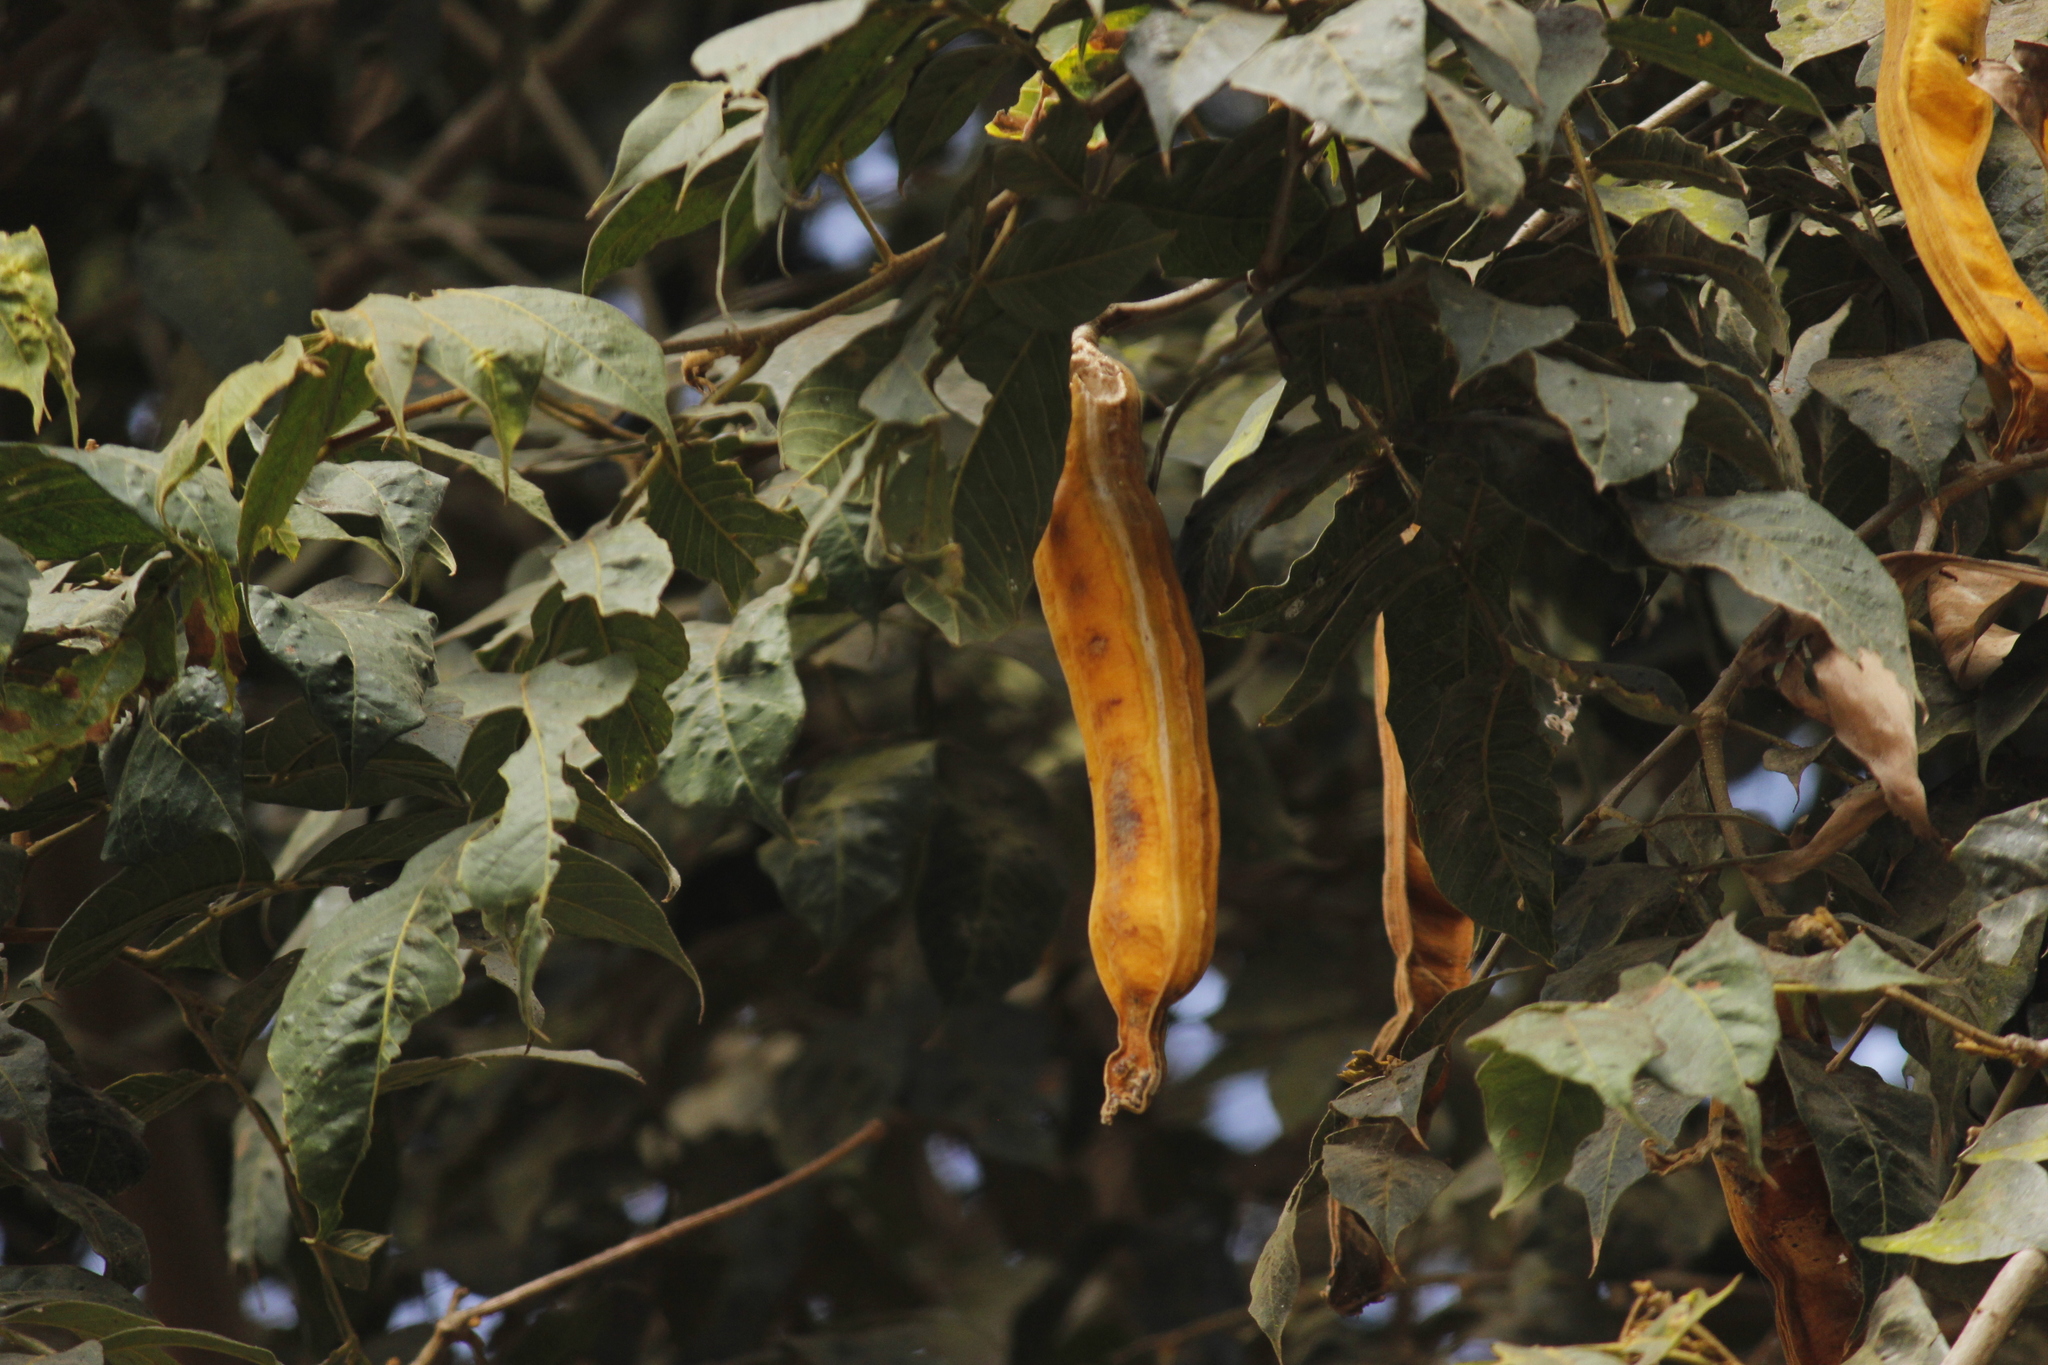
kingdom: Plantae
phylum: Tracheophyta
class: Magnoliopsida
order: Fabales
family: Fabaceae
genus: Inga
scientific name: Inga feuillei
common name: Ice cream bean
